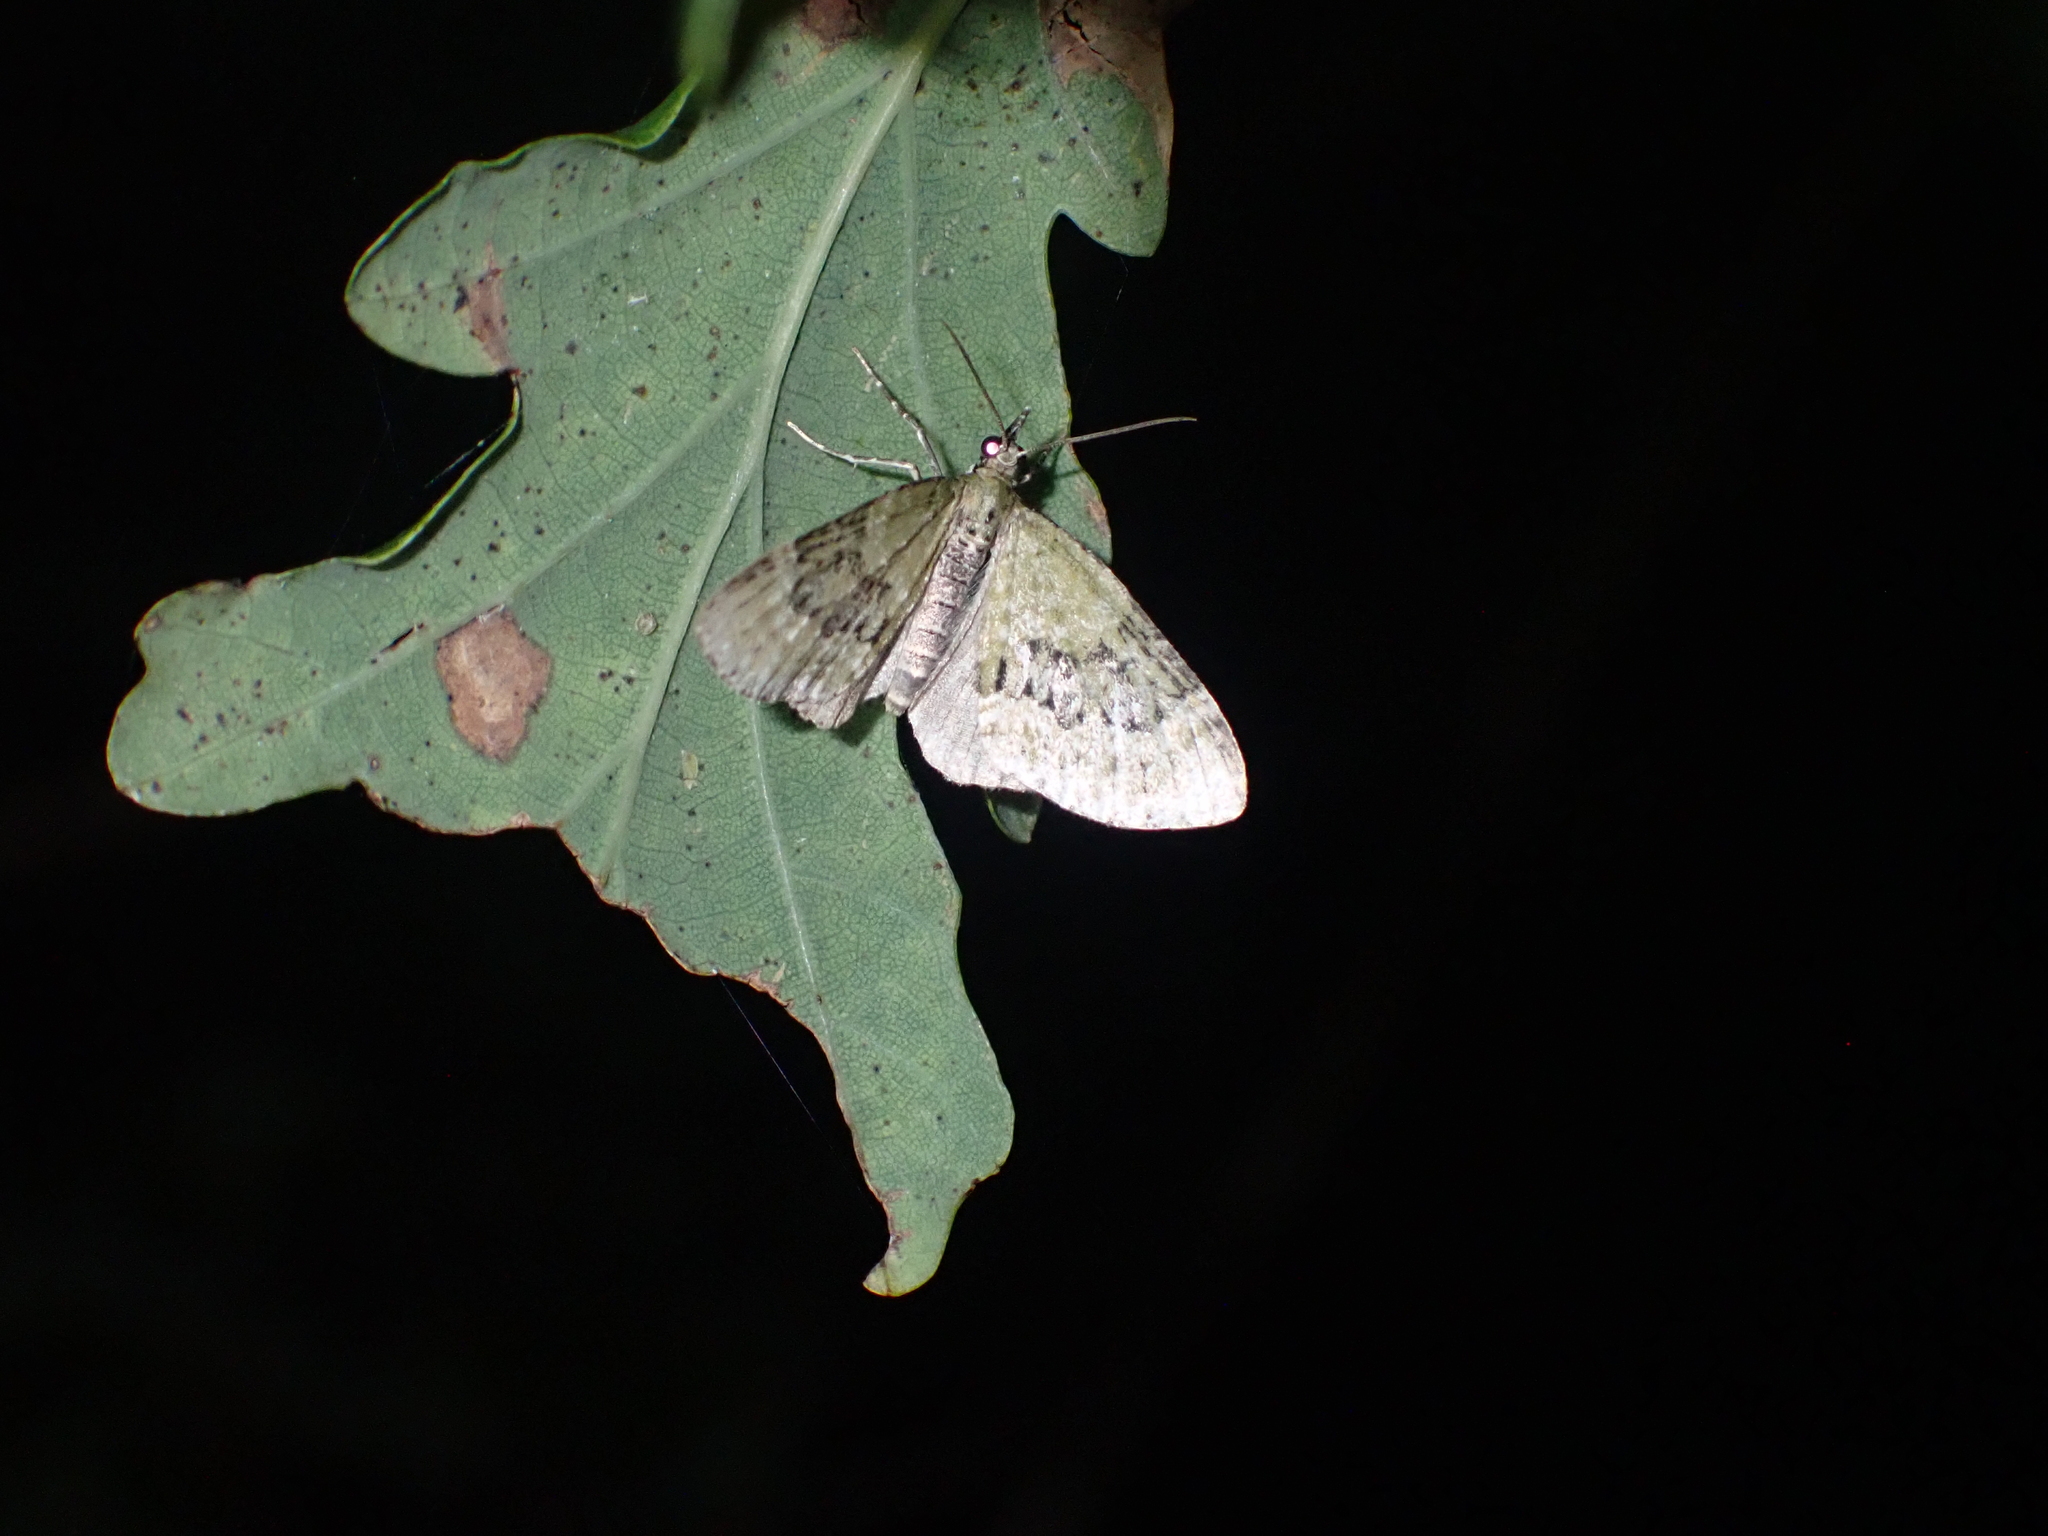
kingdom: Animalia
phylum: Arthropoda
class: Insecta
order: Lepidoptera
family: Geometridae
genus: Acasis
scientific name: Acasis viretata
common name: Yellow-barred brindle
